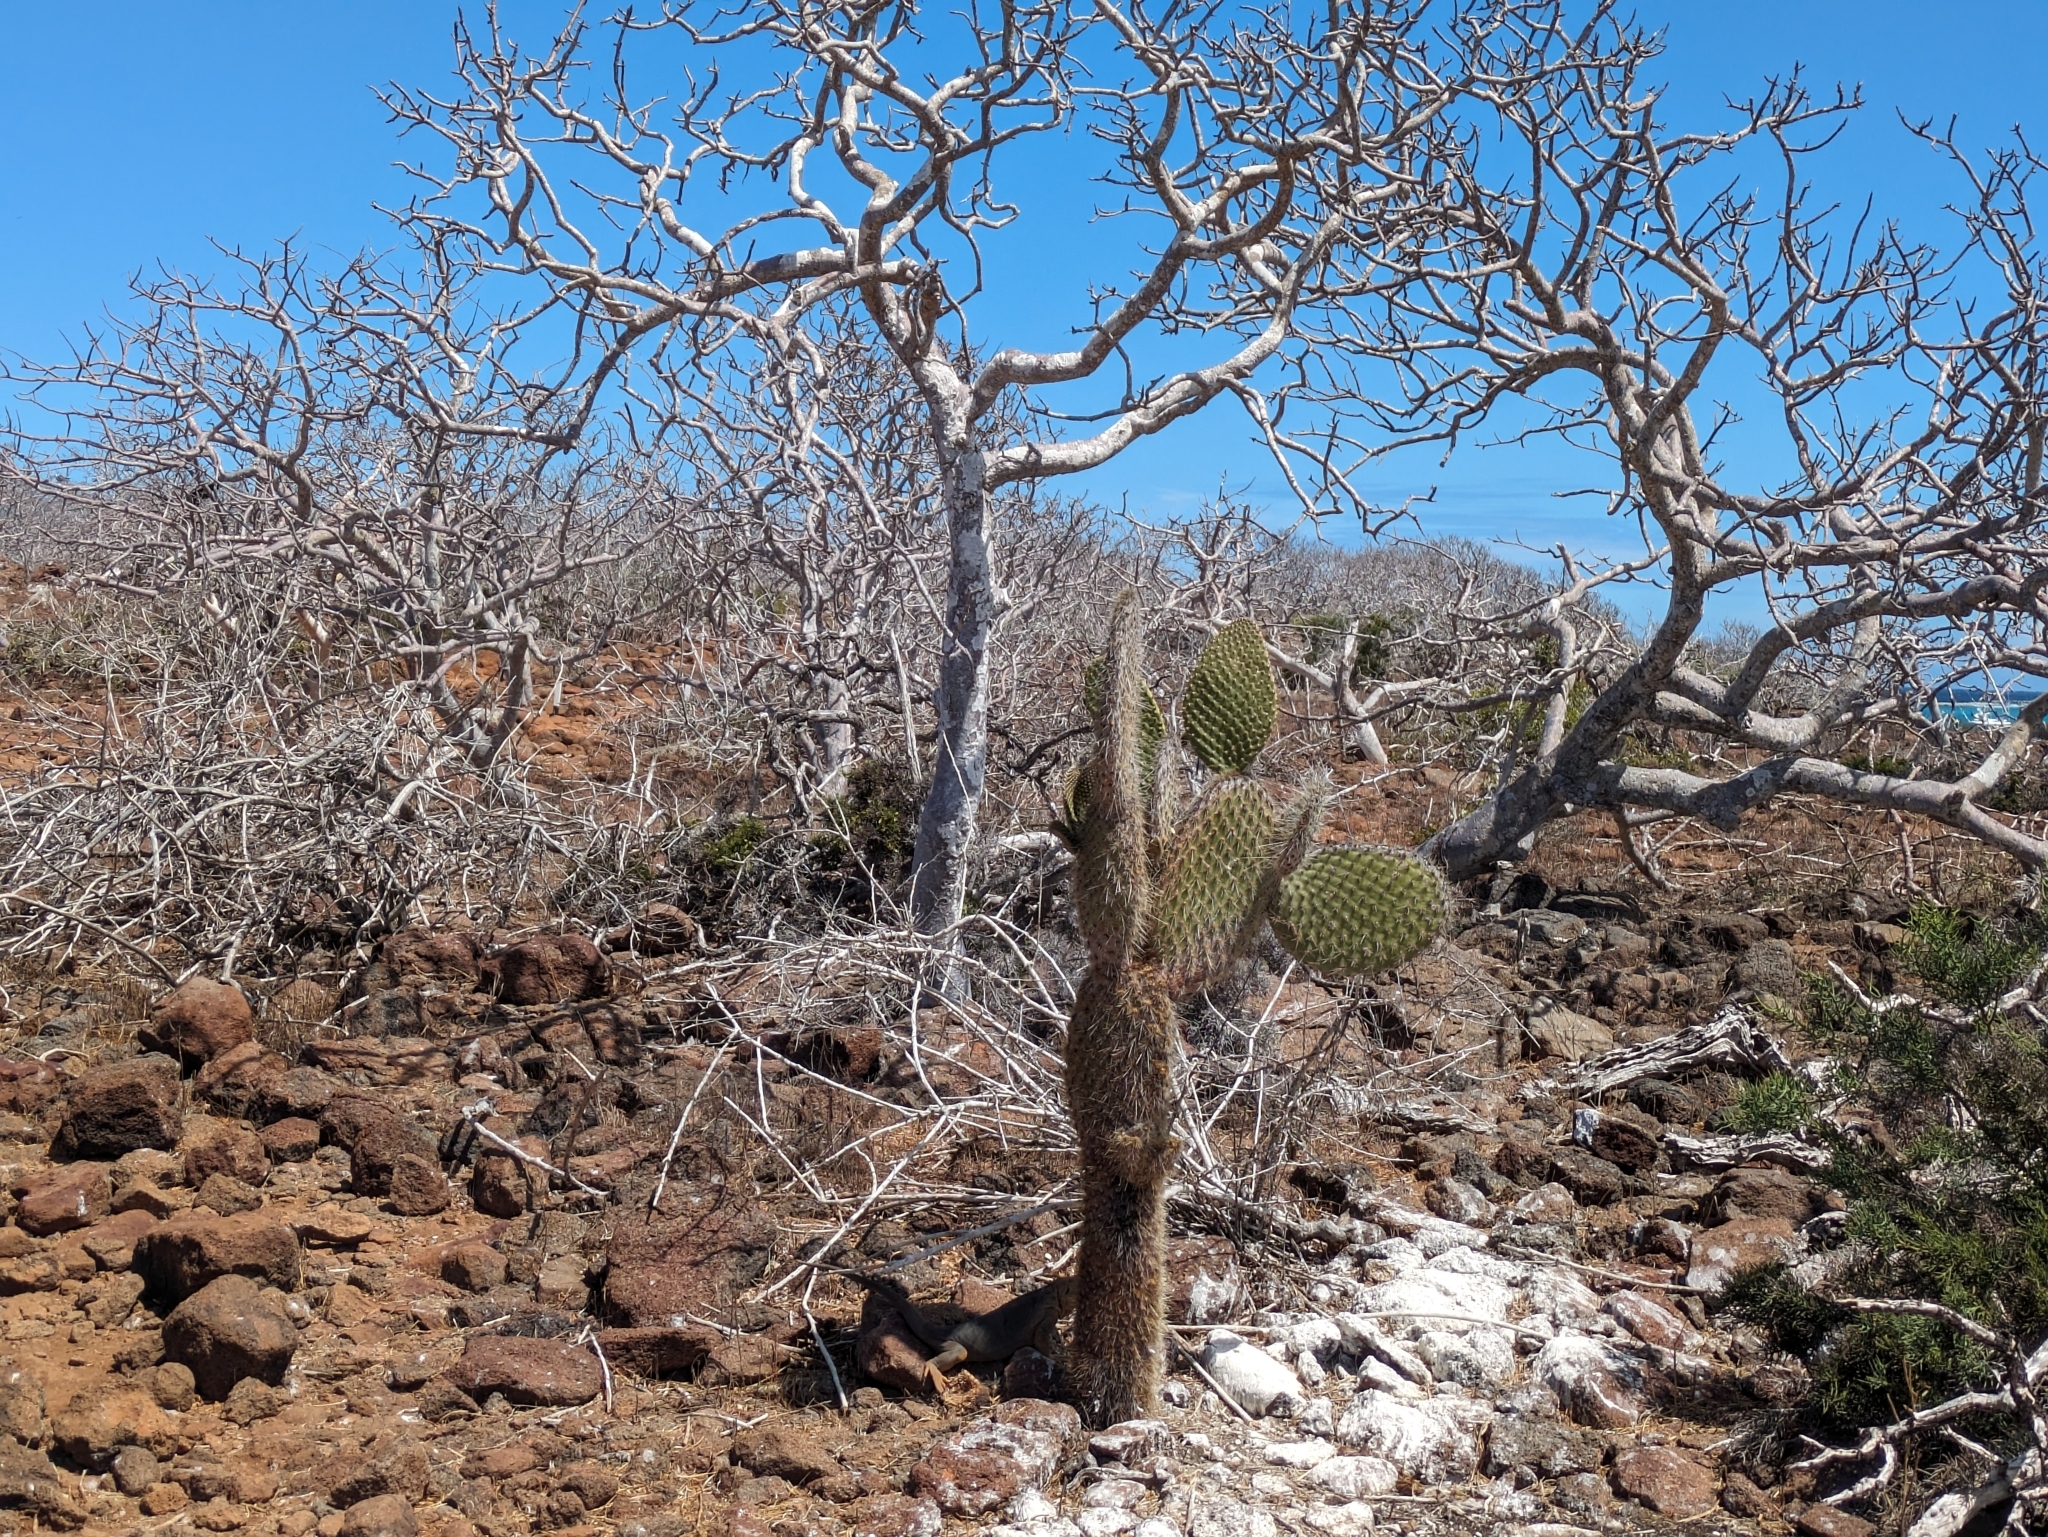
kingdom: Plantae
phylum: Tracheophyta
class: Magnoliopsida
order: Caryophyllales
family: Cactaceae
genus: Opuntia
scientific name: Opuntia galapageia
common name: Galápagos prickly pear
